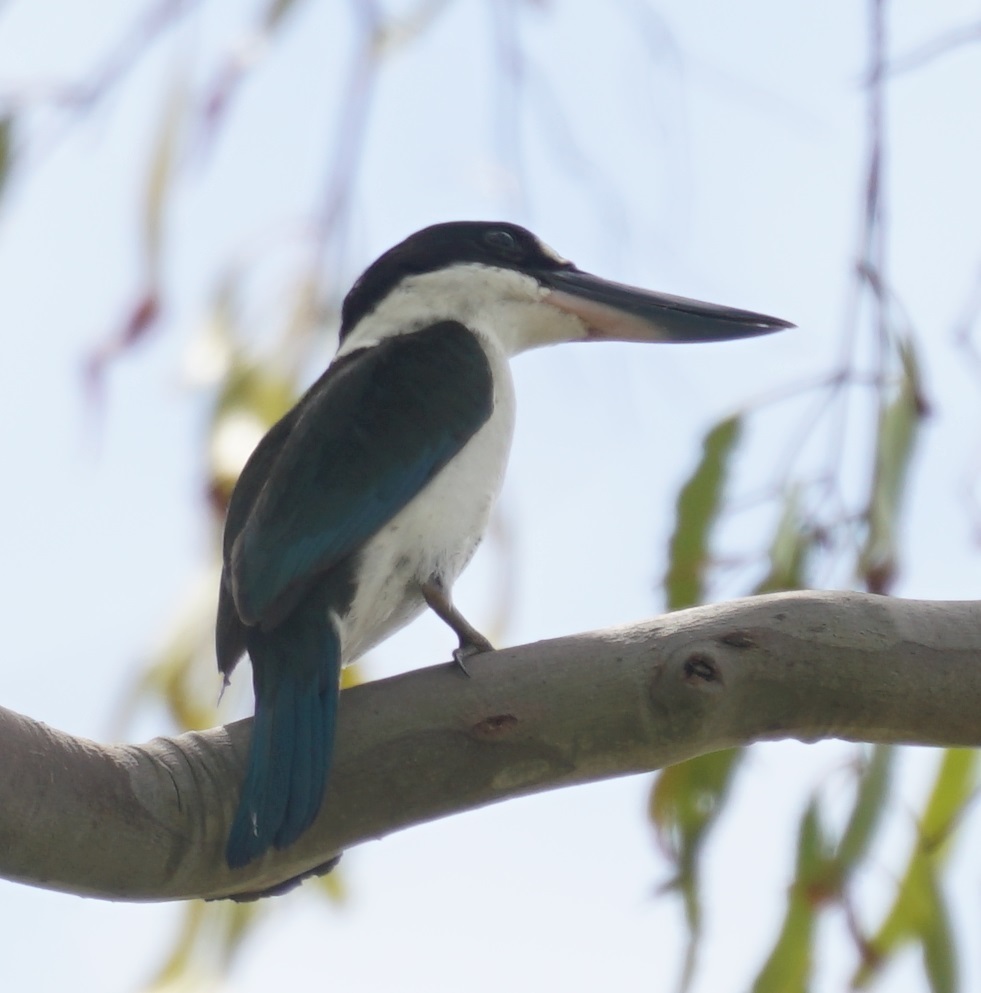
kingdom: Animalia
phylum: Chordata
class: Aves
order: Coraciiformes
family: Alcedinidae
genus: Todiramphus
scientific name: Todiramphus sordidus
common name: Torresian kingfisher
